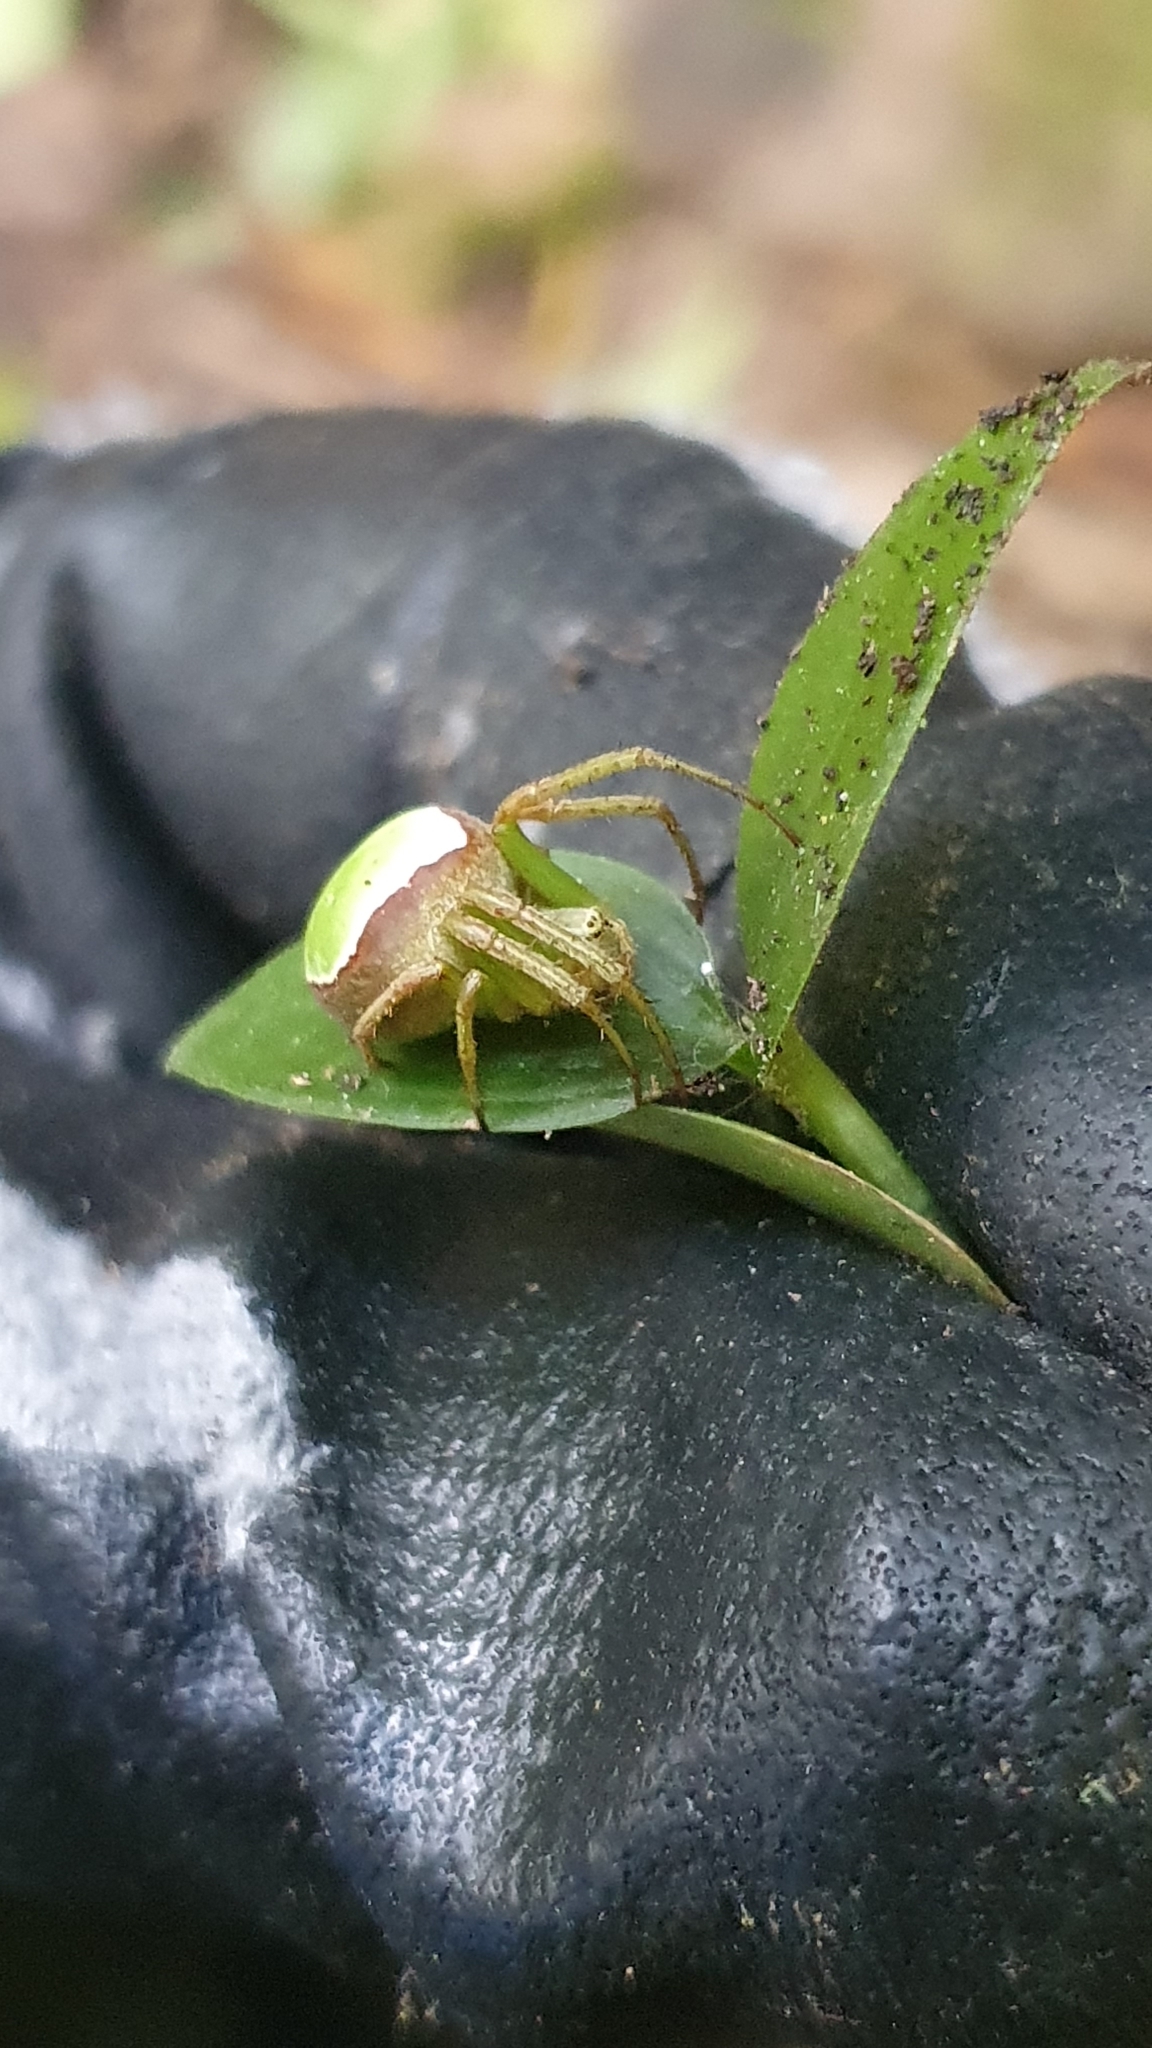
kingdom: Animalia
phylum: Arthropoda
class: Arachnida
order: Araneae
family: Araneidae
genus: Colaranea
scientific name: Colaranea viriditas
